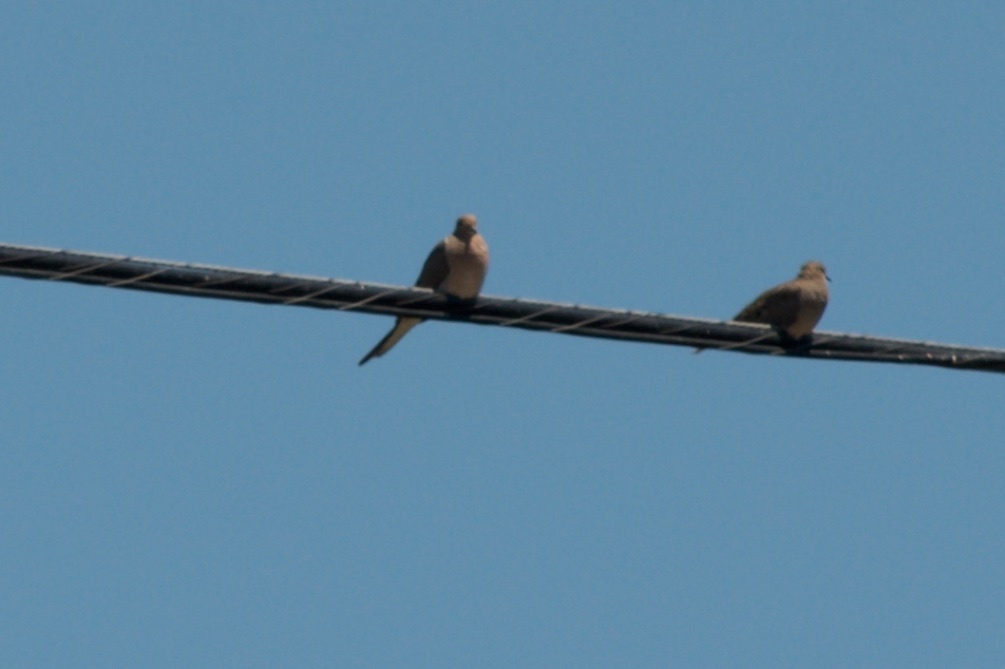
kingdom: Animalia
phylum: Chordata
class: Aves
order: Columbiformes
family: Columbidae
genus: Zenaida
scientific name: Zenaida macroura
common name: Mourning dove
